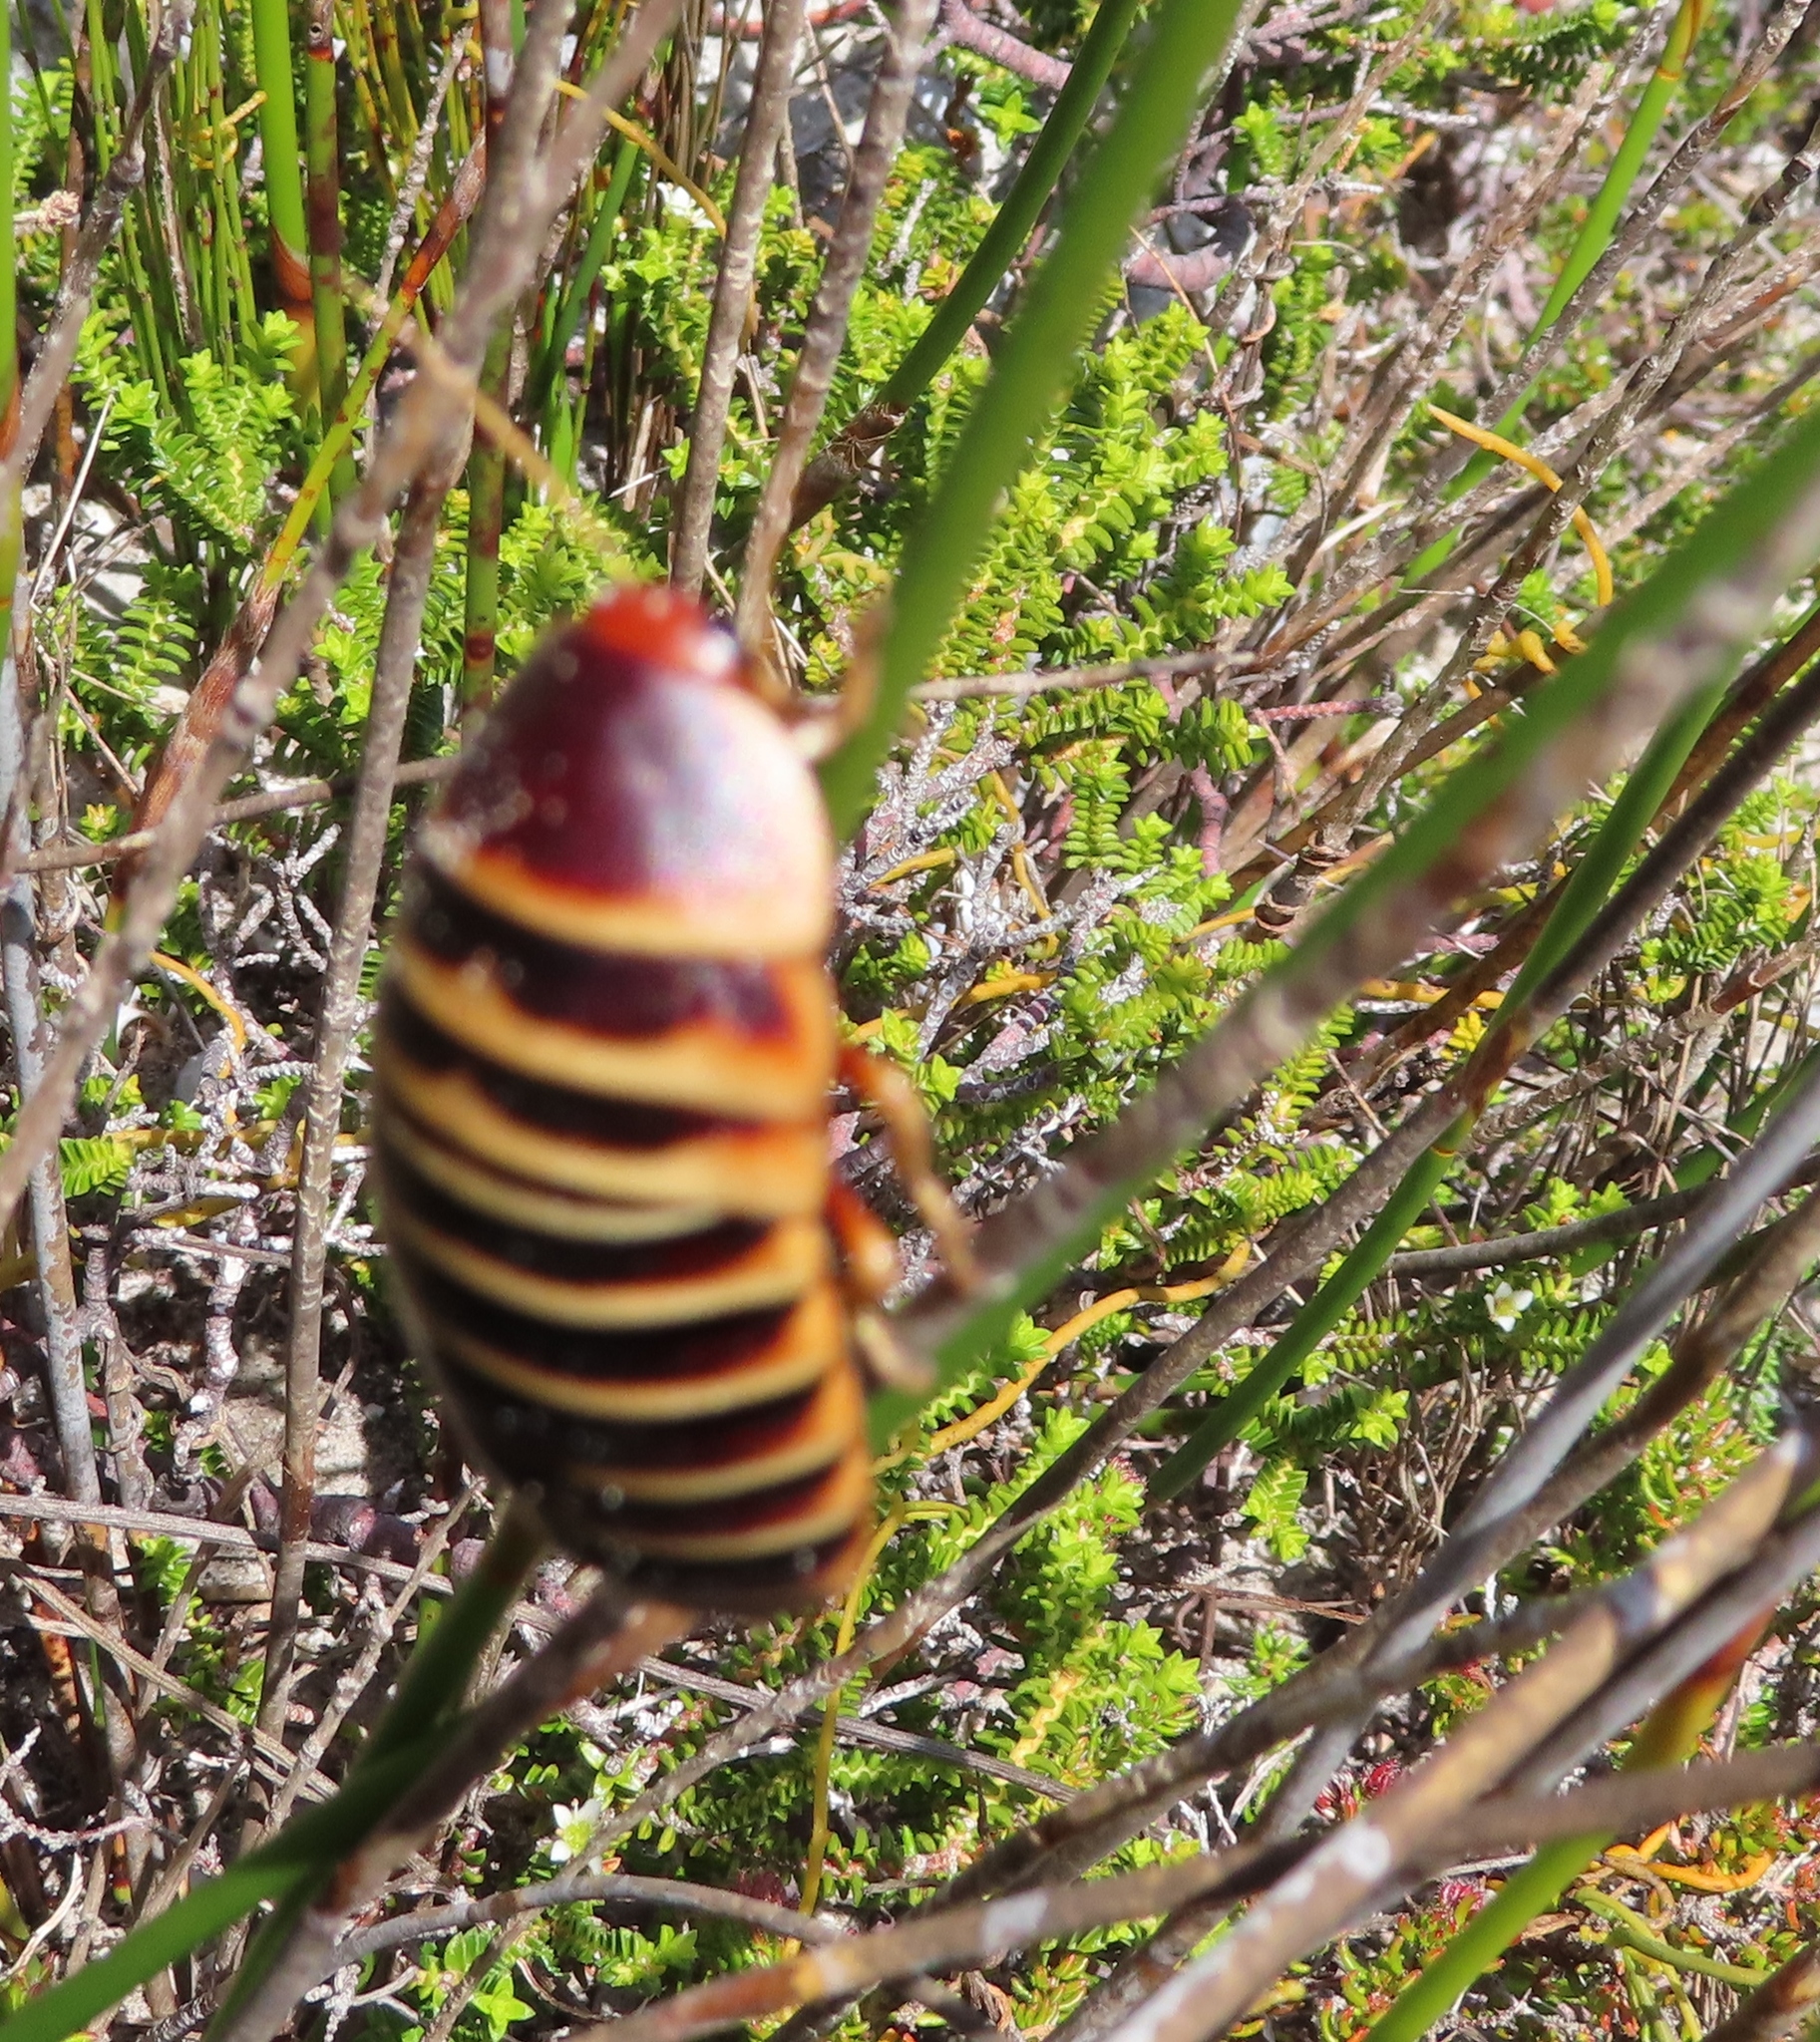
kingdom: Animalia
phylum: Arthropoda
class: Insecta
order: Blattodea
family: Blaberidae
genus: Aptera
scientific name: Aptera fusca
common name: Cape mountain cockroach
